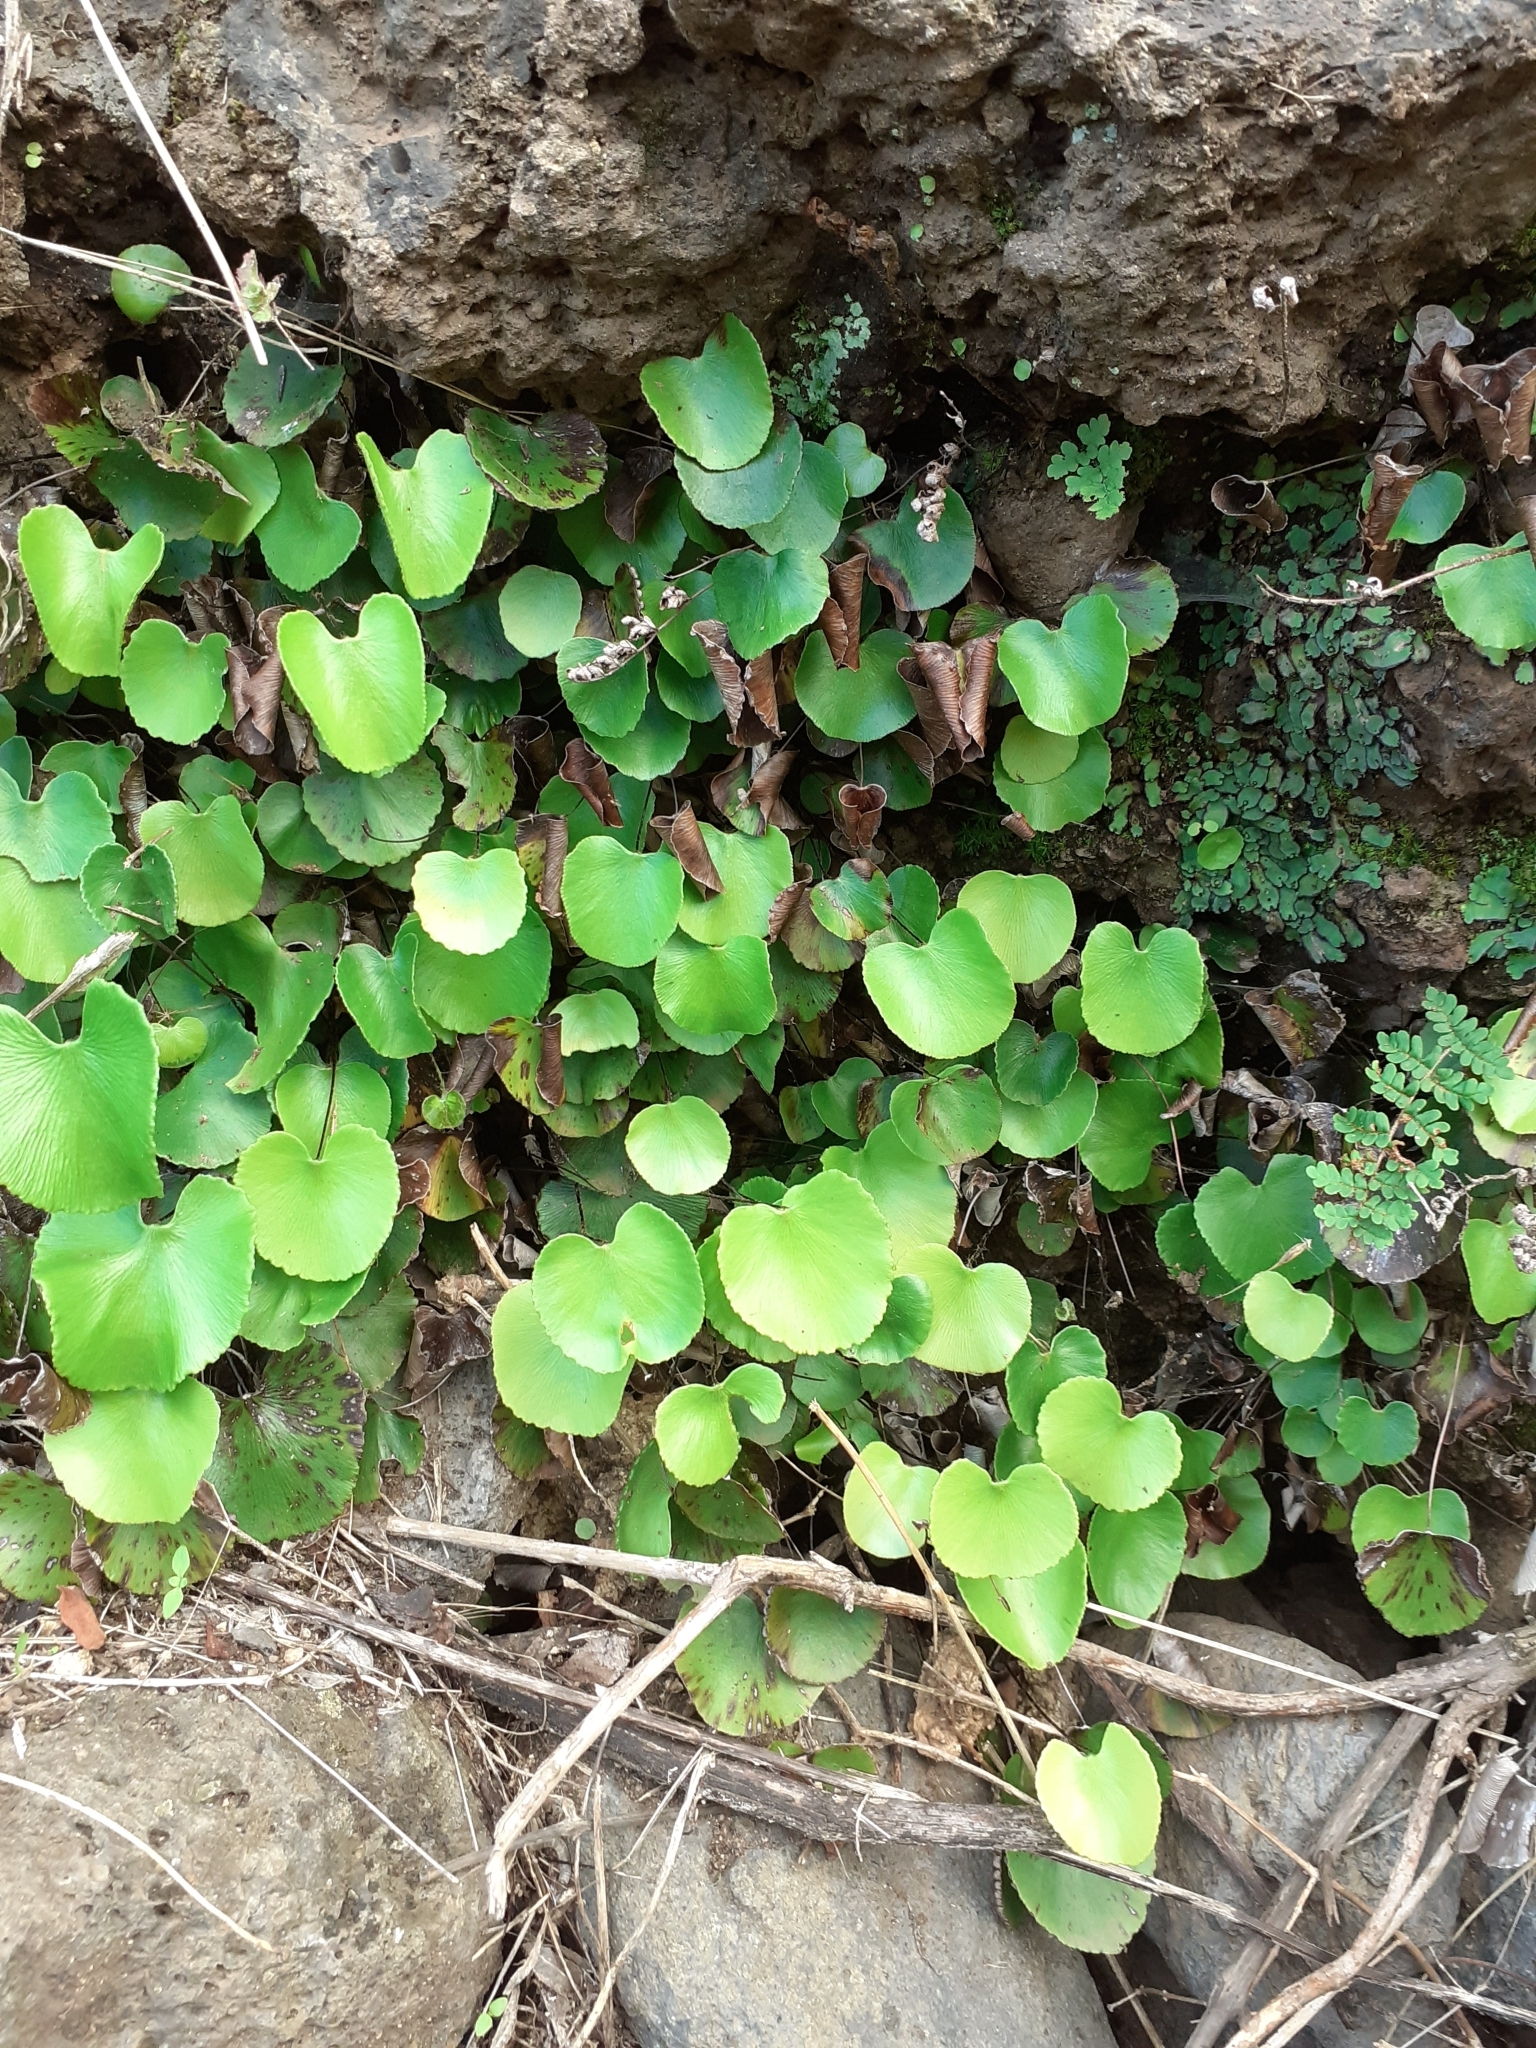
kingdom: Plantae
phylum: Tracheophyta
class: Polypodiopsida
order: Polypodiales
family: Pteridaceae
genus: Adiantum
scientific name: Adiantum reniforme
